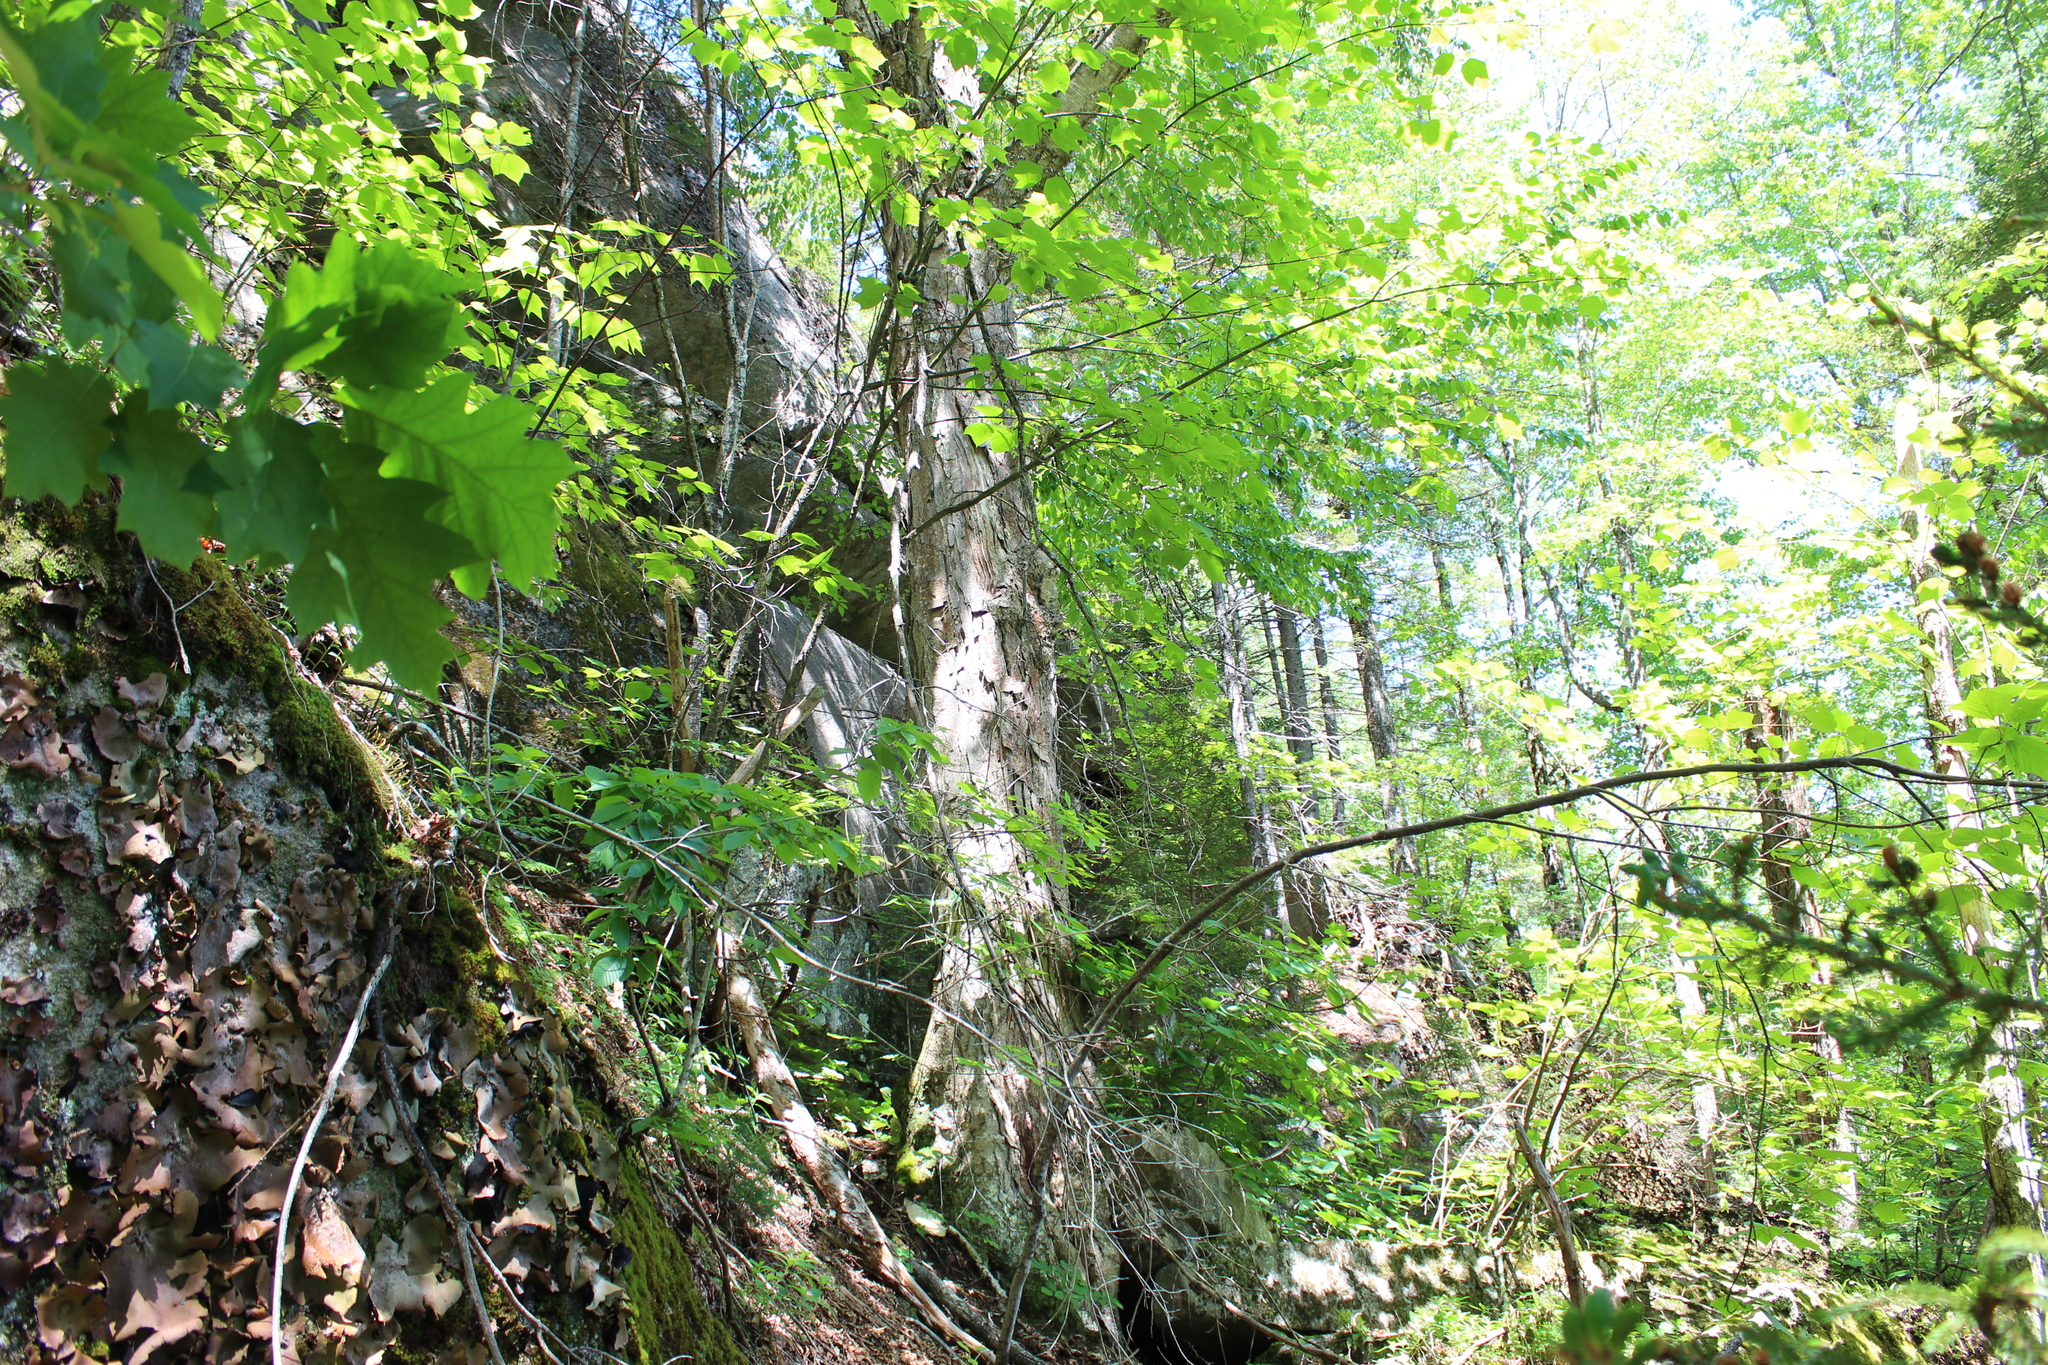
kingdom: Plantae
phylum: Tracheophyta
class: Magnoliopsida
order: Fagales
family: Betulaceae
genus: Betula
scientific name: Betula alleghaniensis
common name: Yellow birch
